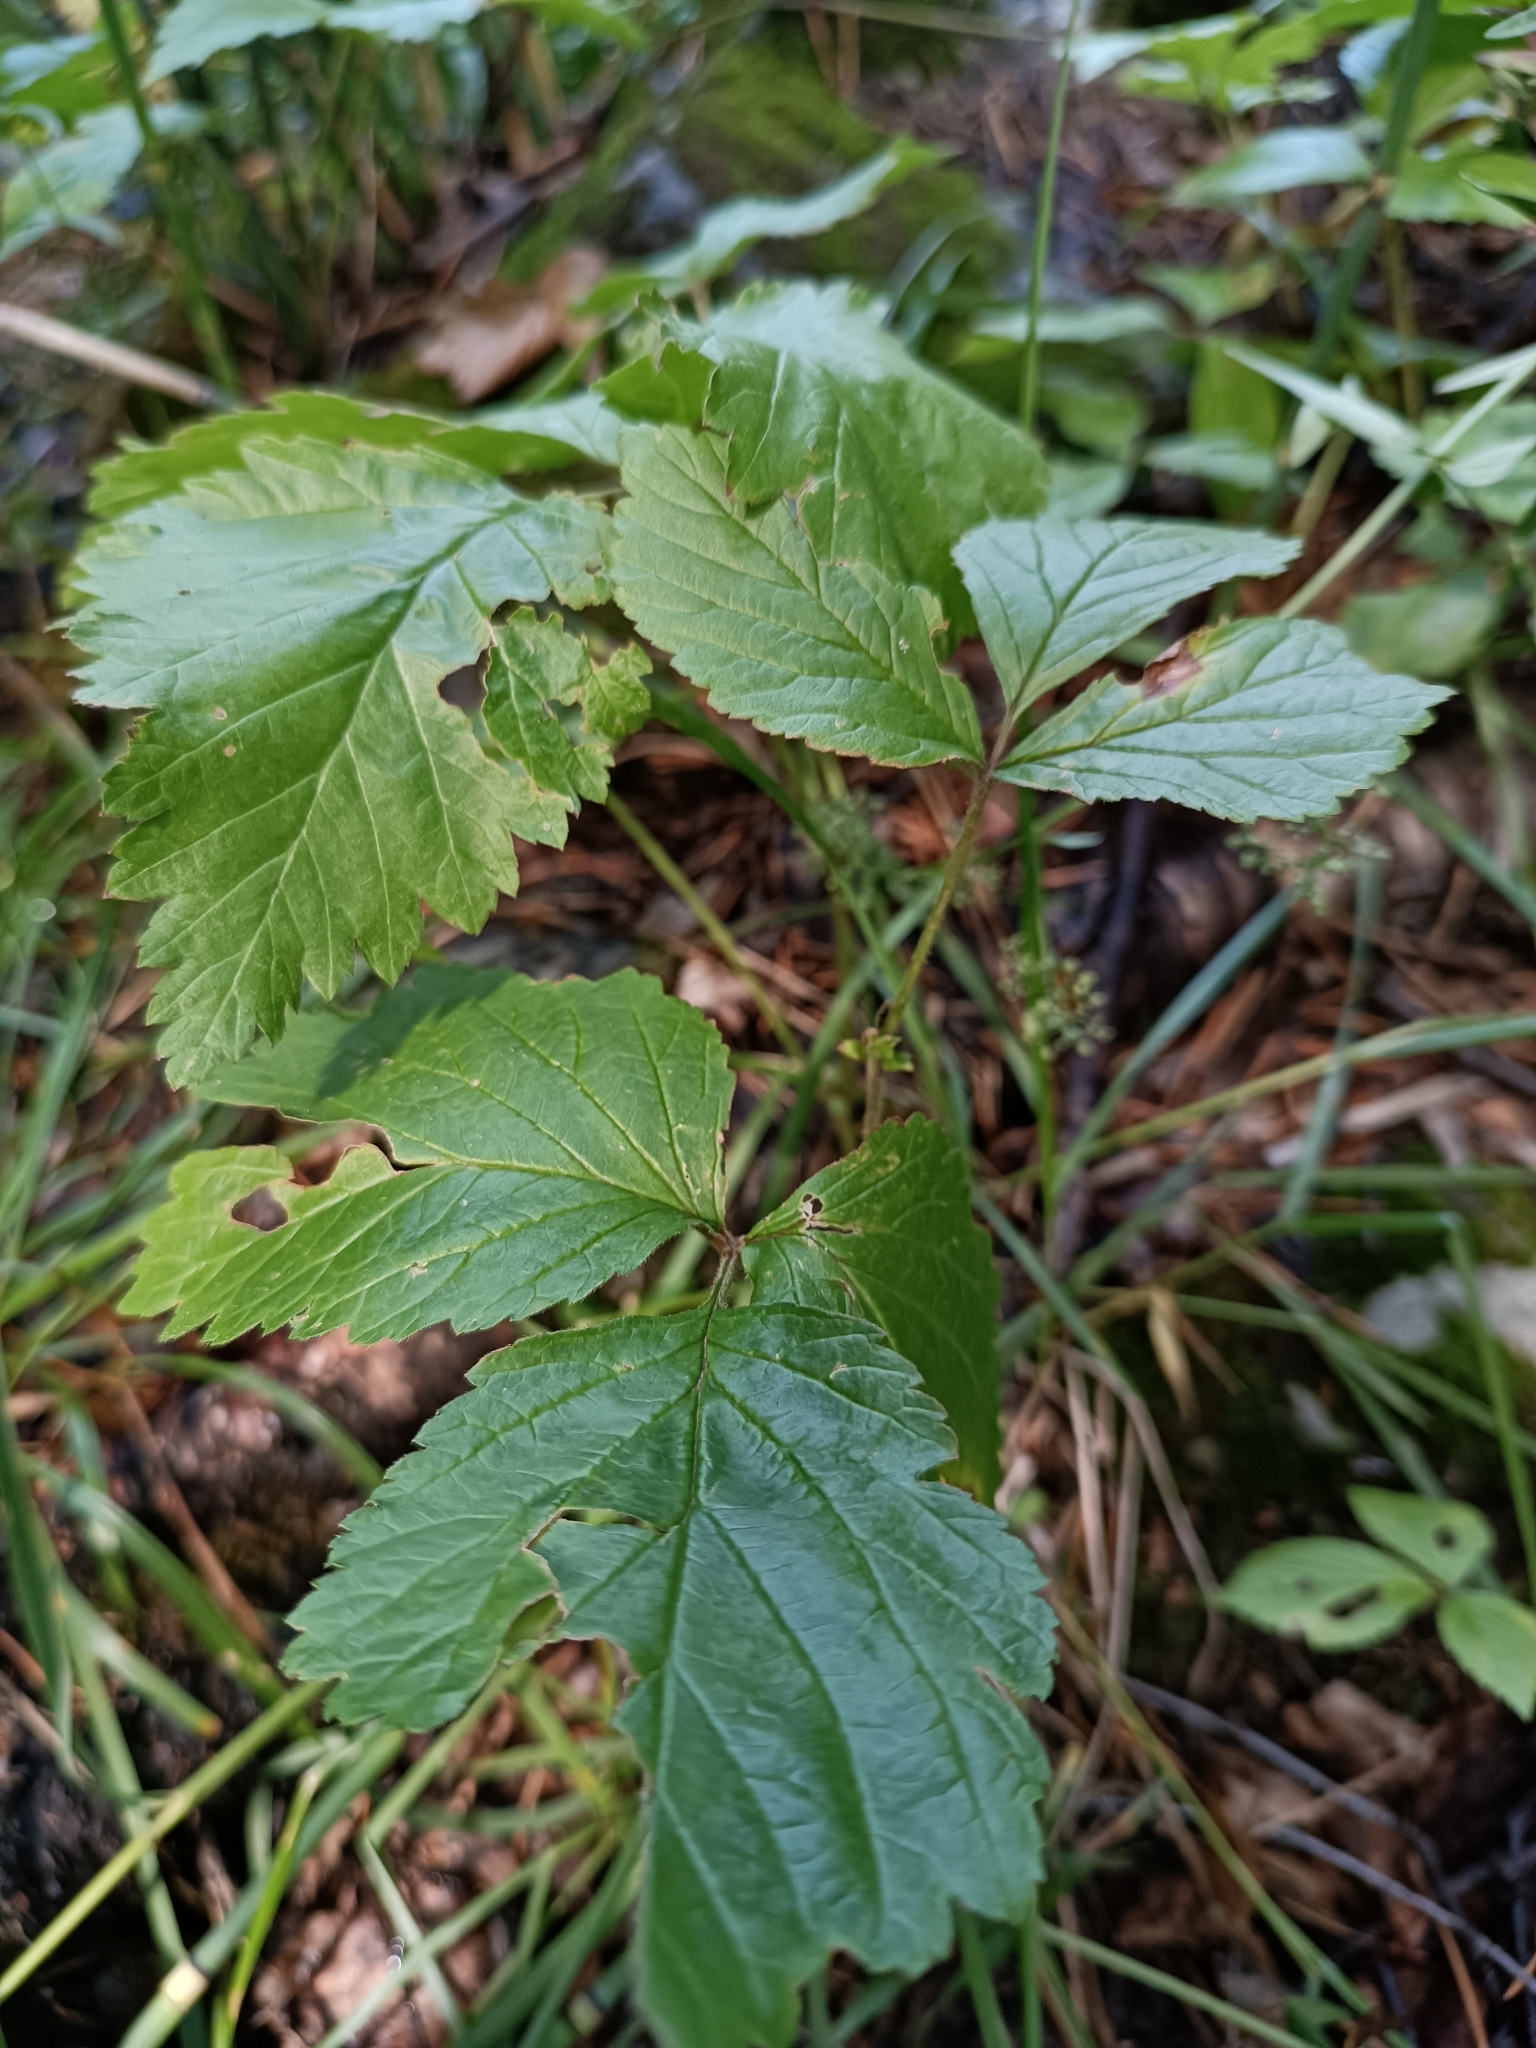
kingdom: Plantae
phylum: Tracheophyta
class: Magnoliopsida
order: Rosales
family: Rosaceae
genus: Rubus
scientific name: Rubus saxatilis
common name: Stone bramble
